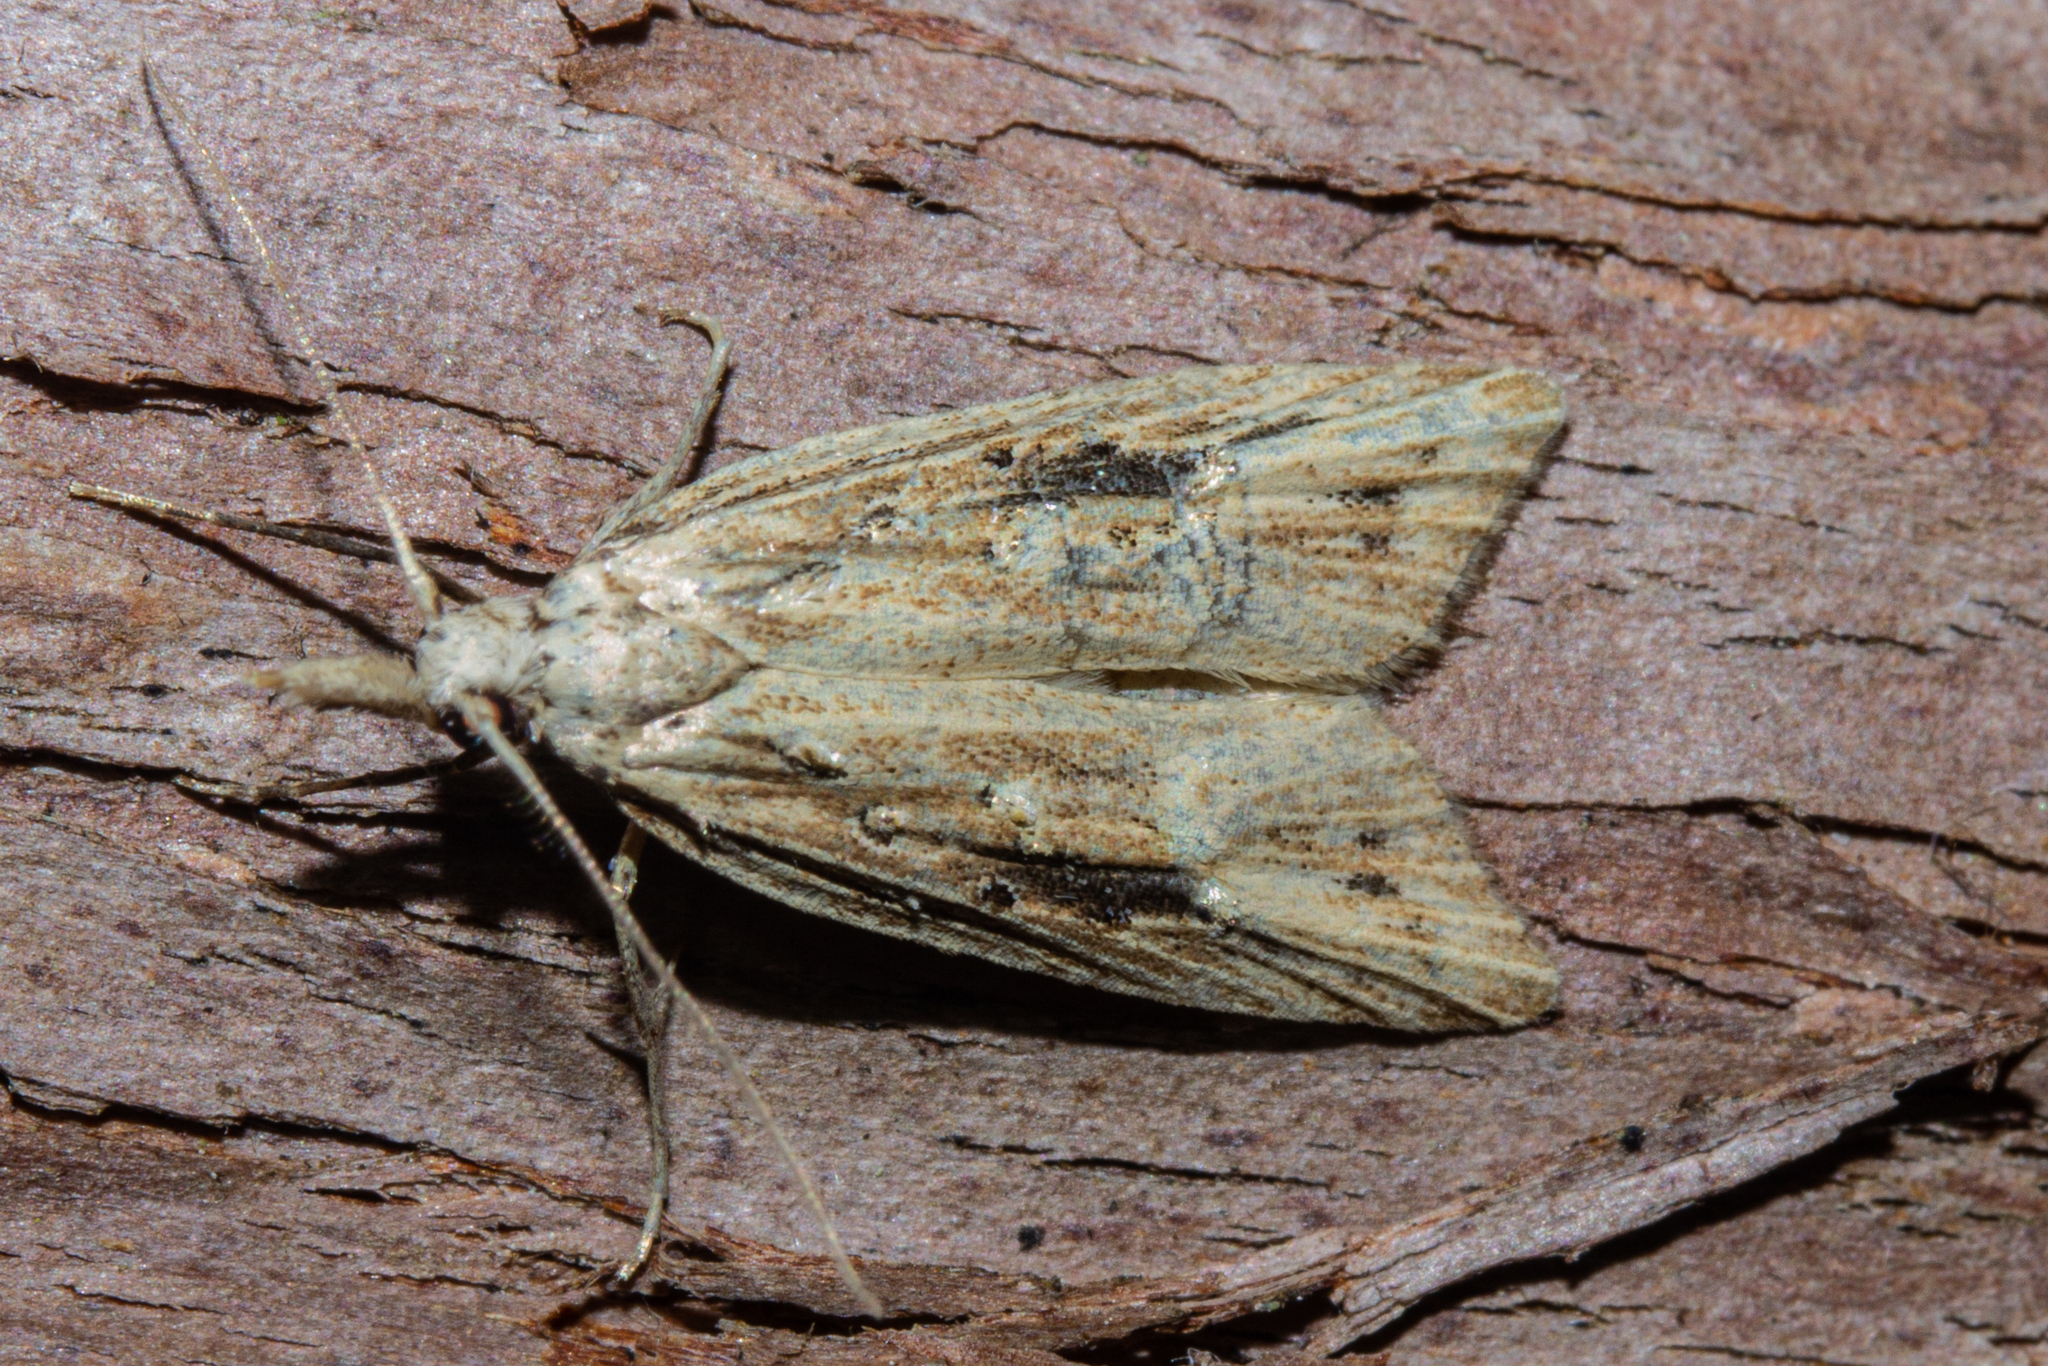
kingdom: Animalia
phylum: Arthropoda
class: Insecta
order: Lepidoptera
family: Carposinidae
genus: Carposina
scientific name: Carposina Heterocrossa exochana
